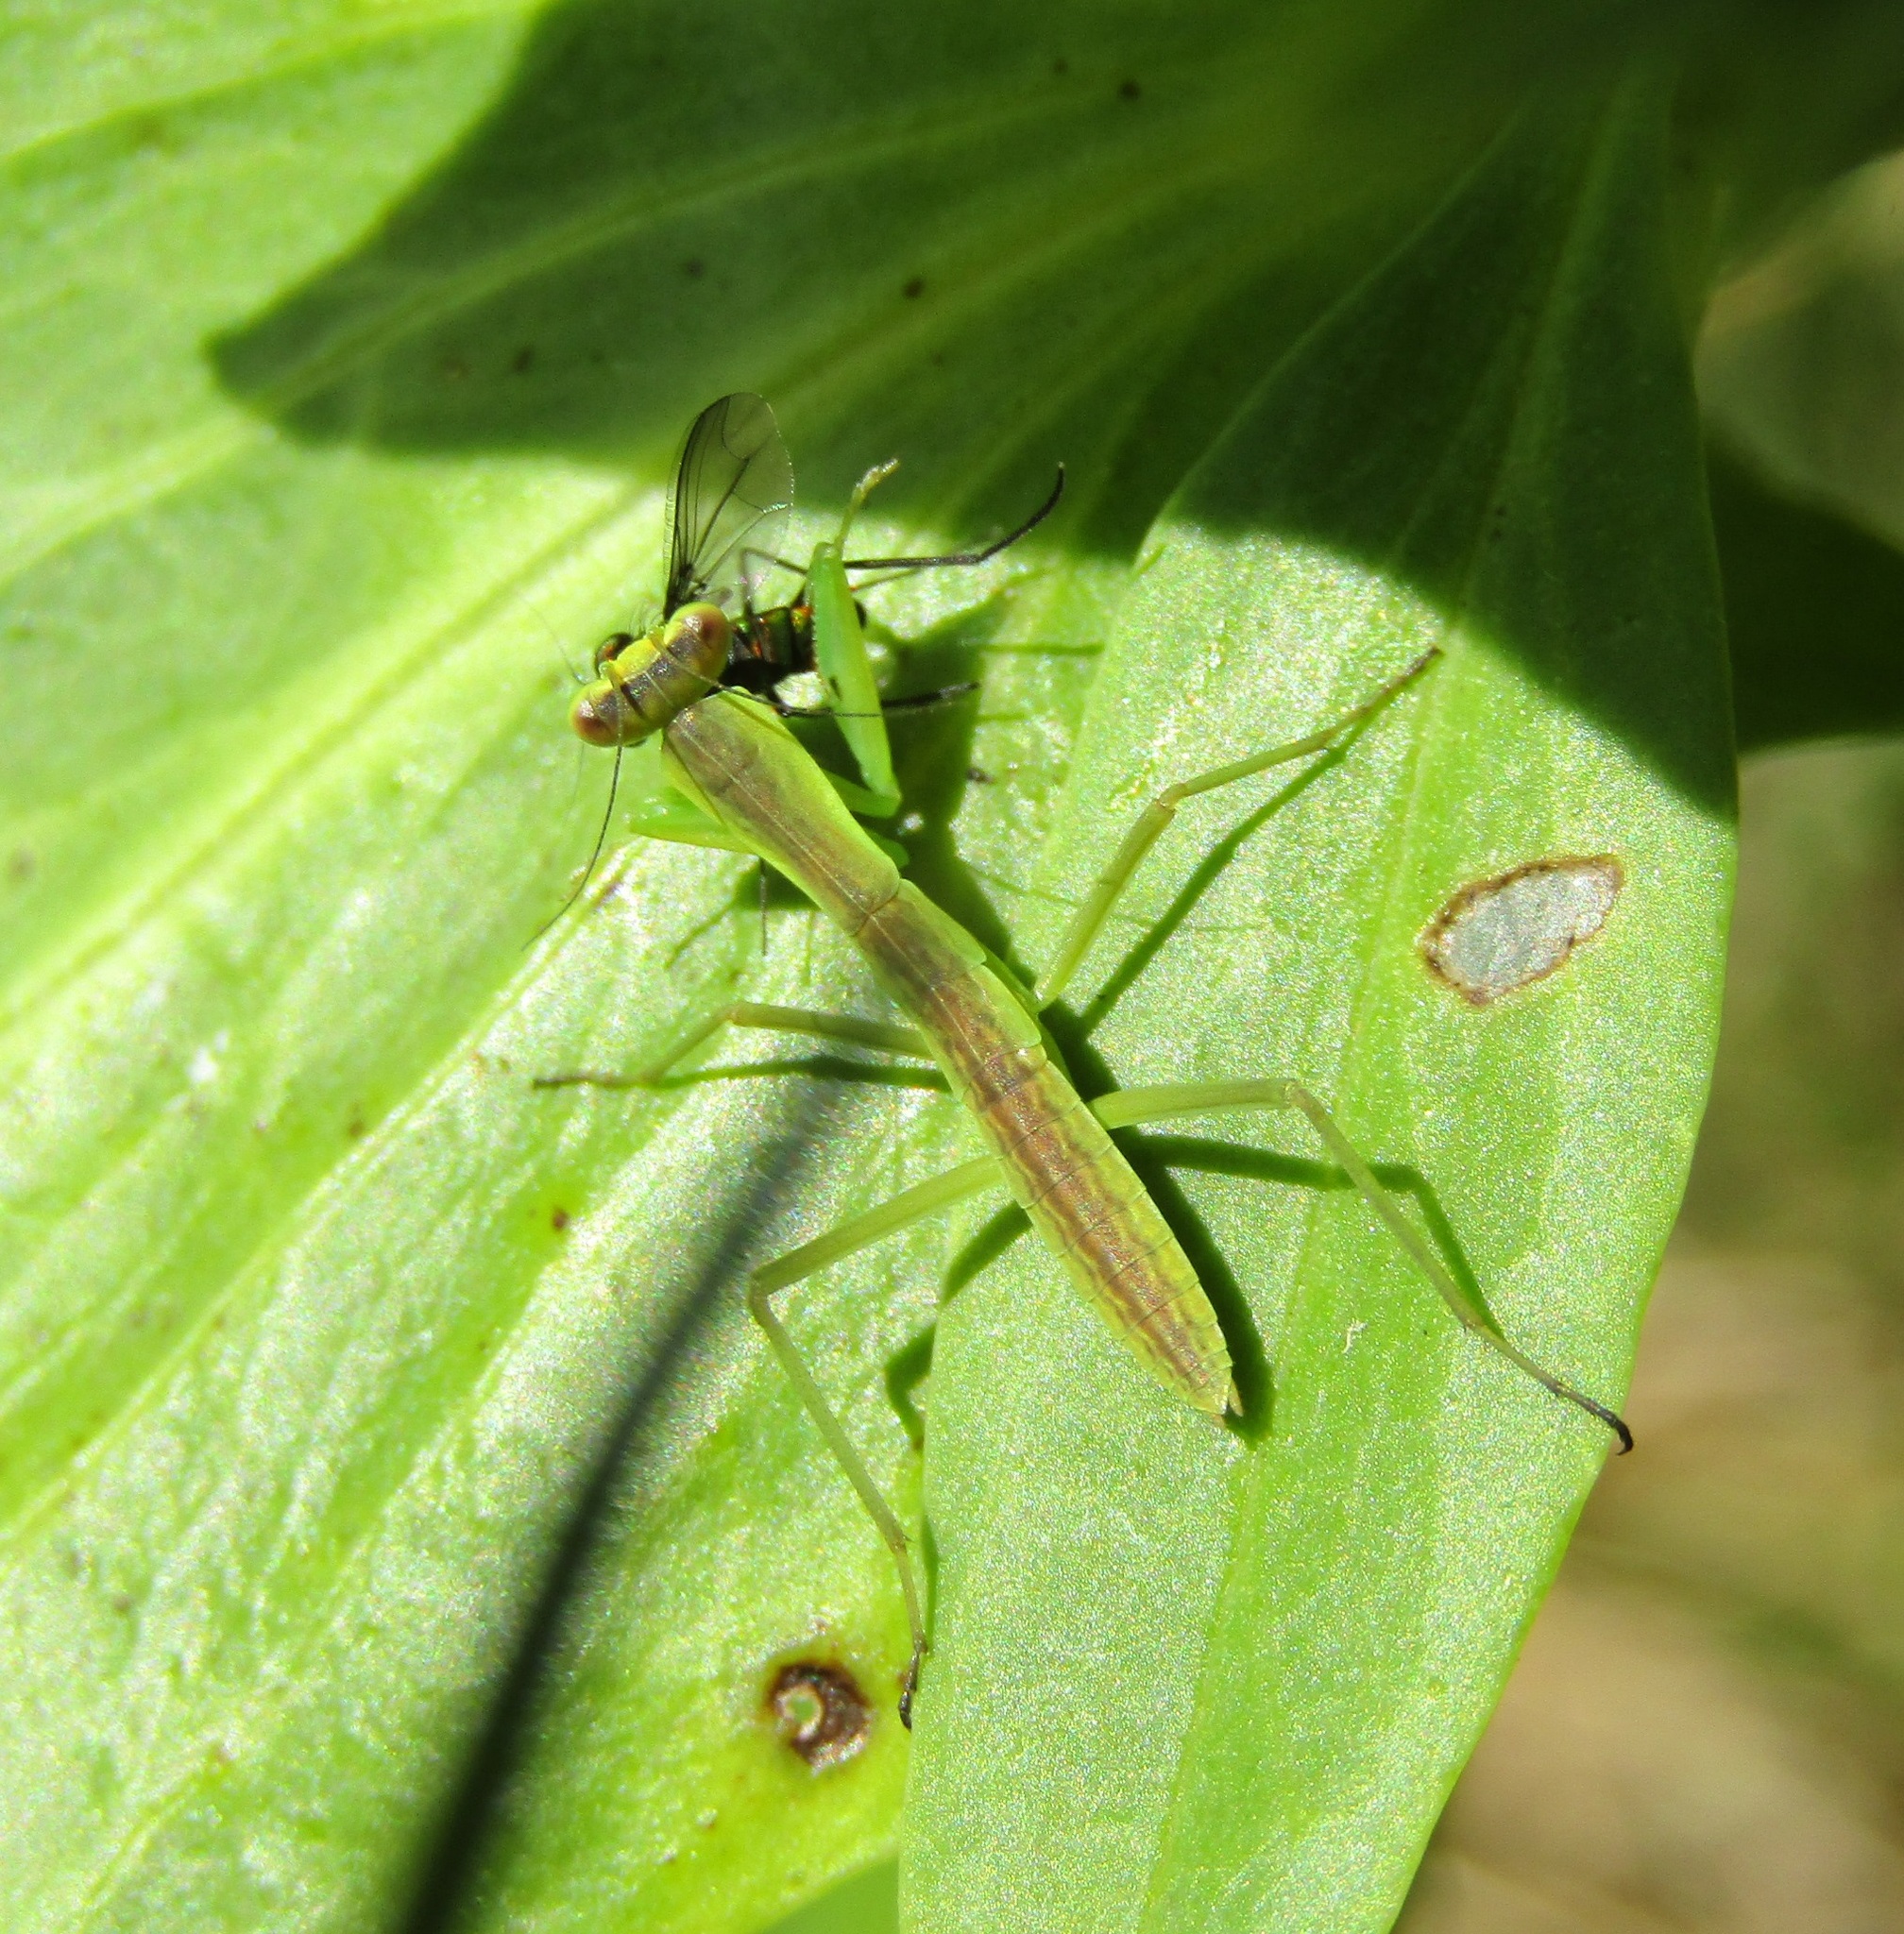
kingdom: Animalia
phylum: Arthropoda
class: Insecta
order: Mantodea
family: Mantidae
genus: Orthodera
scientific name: Orthodera novaezealandiae
